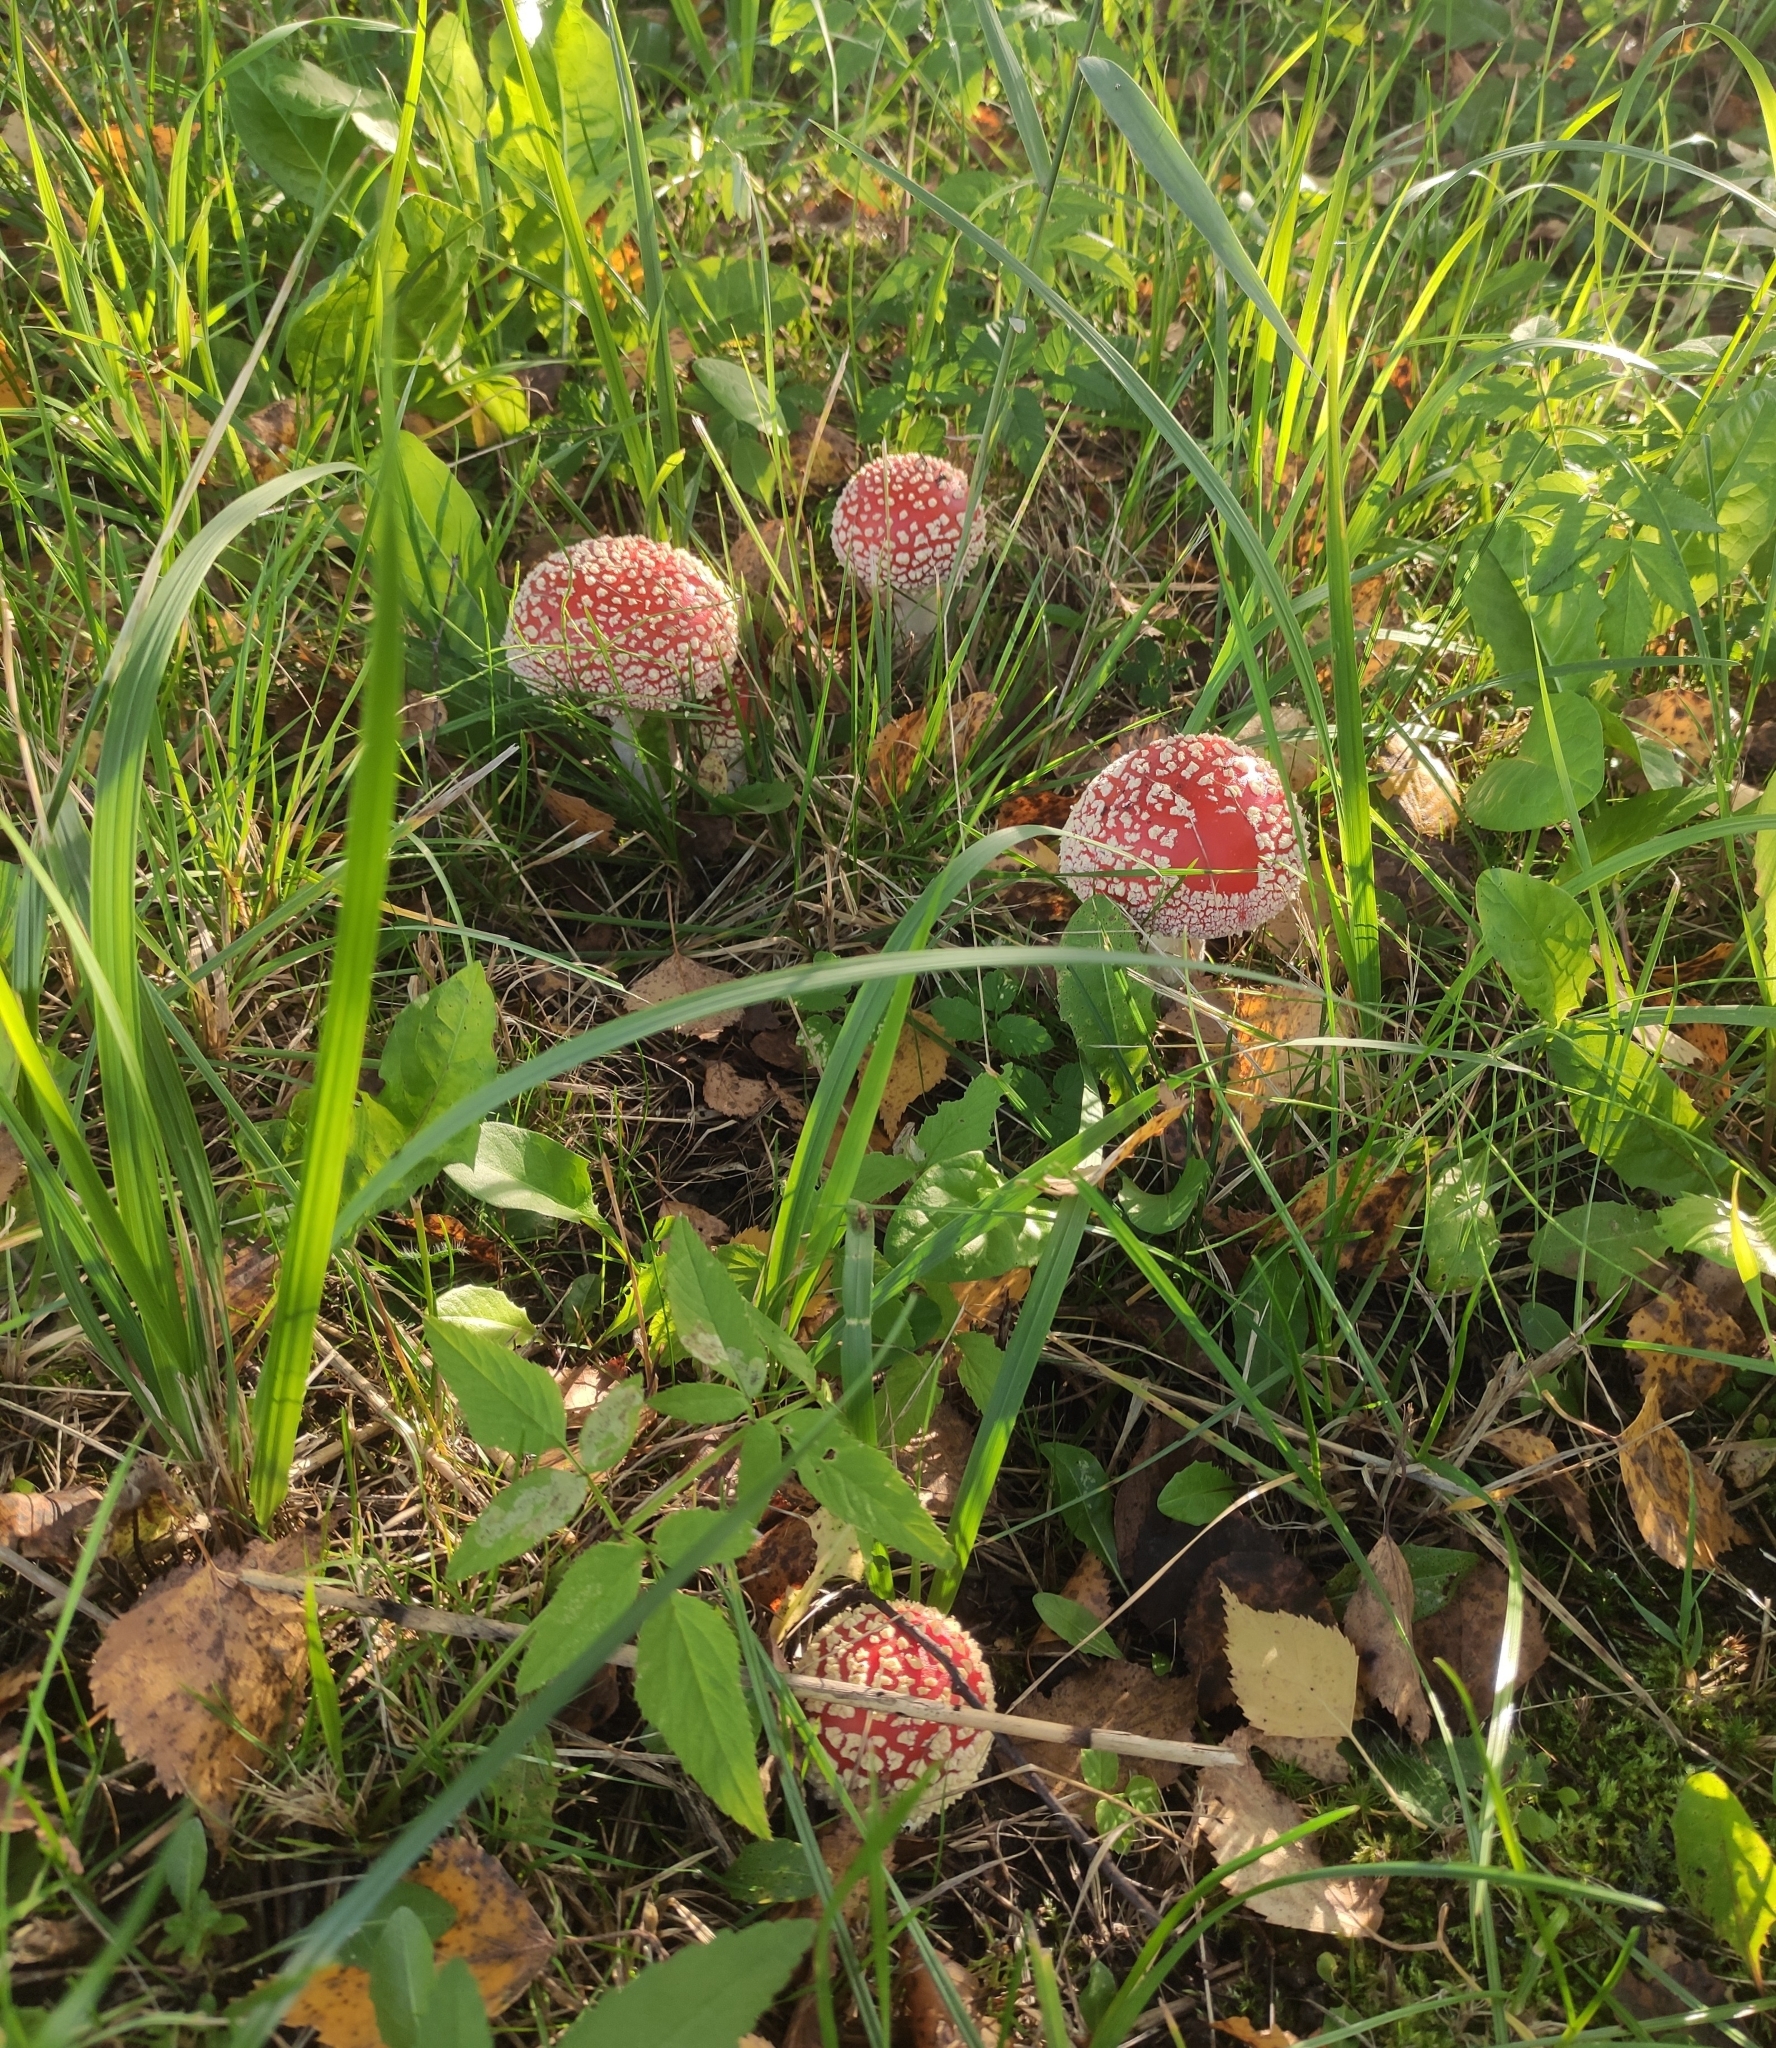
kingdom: Fungi
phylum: Basidiomycota
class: Agaricomycetes
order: Agaricales
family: Amanitaceae
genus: Amanita
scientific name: Amanita muscaria
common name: Fly agaric
